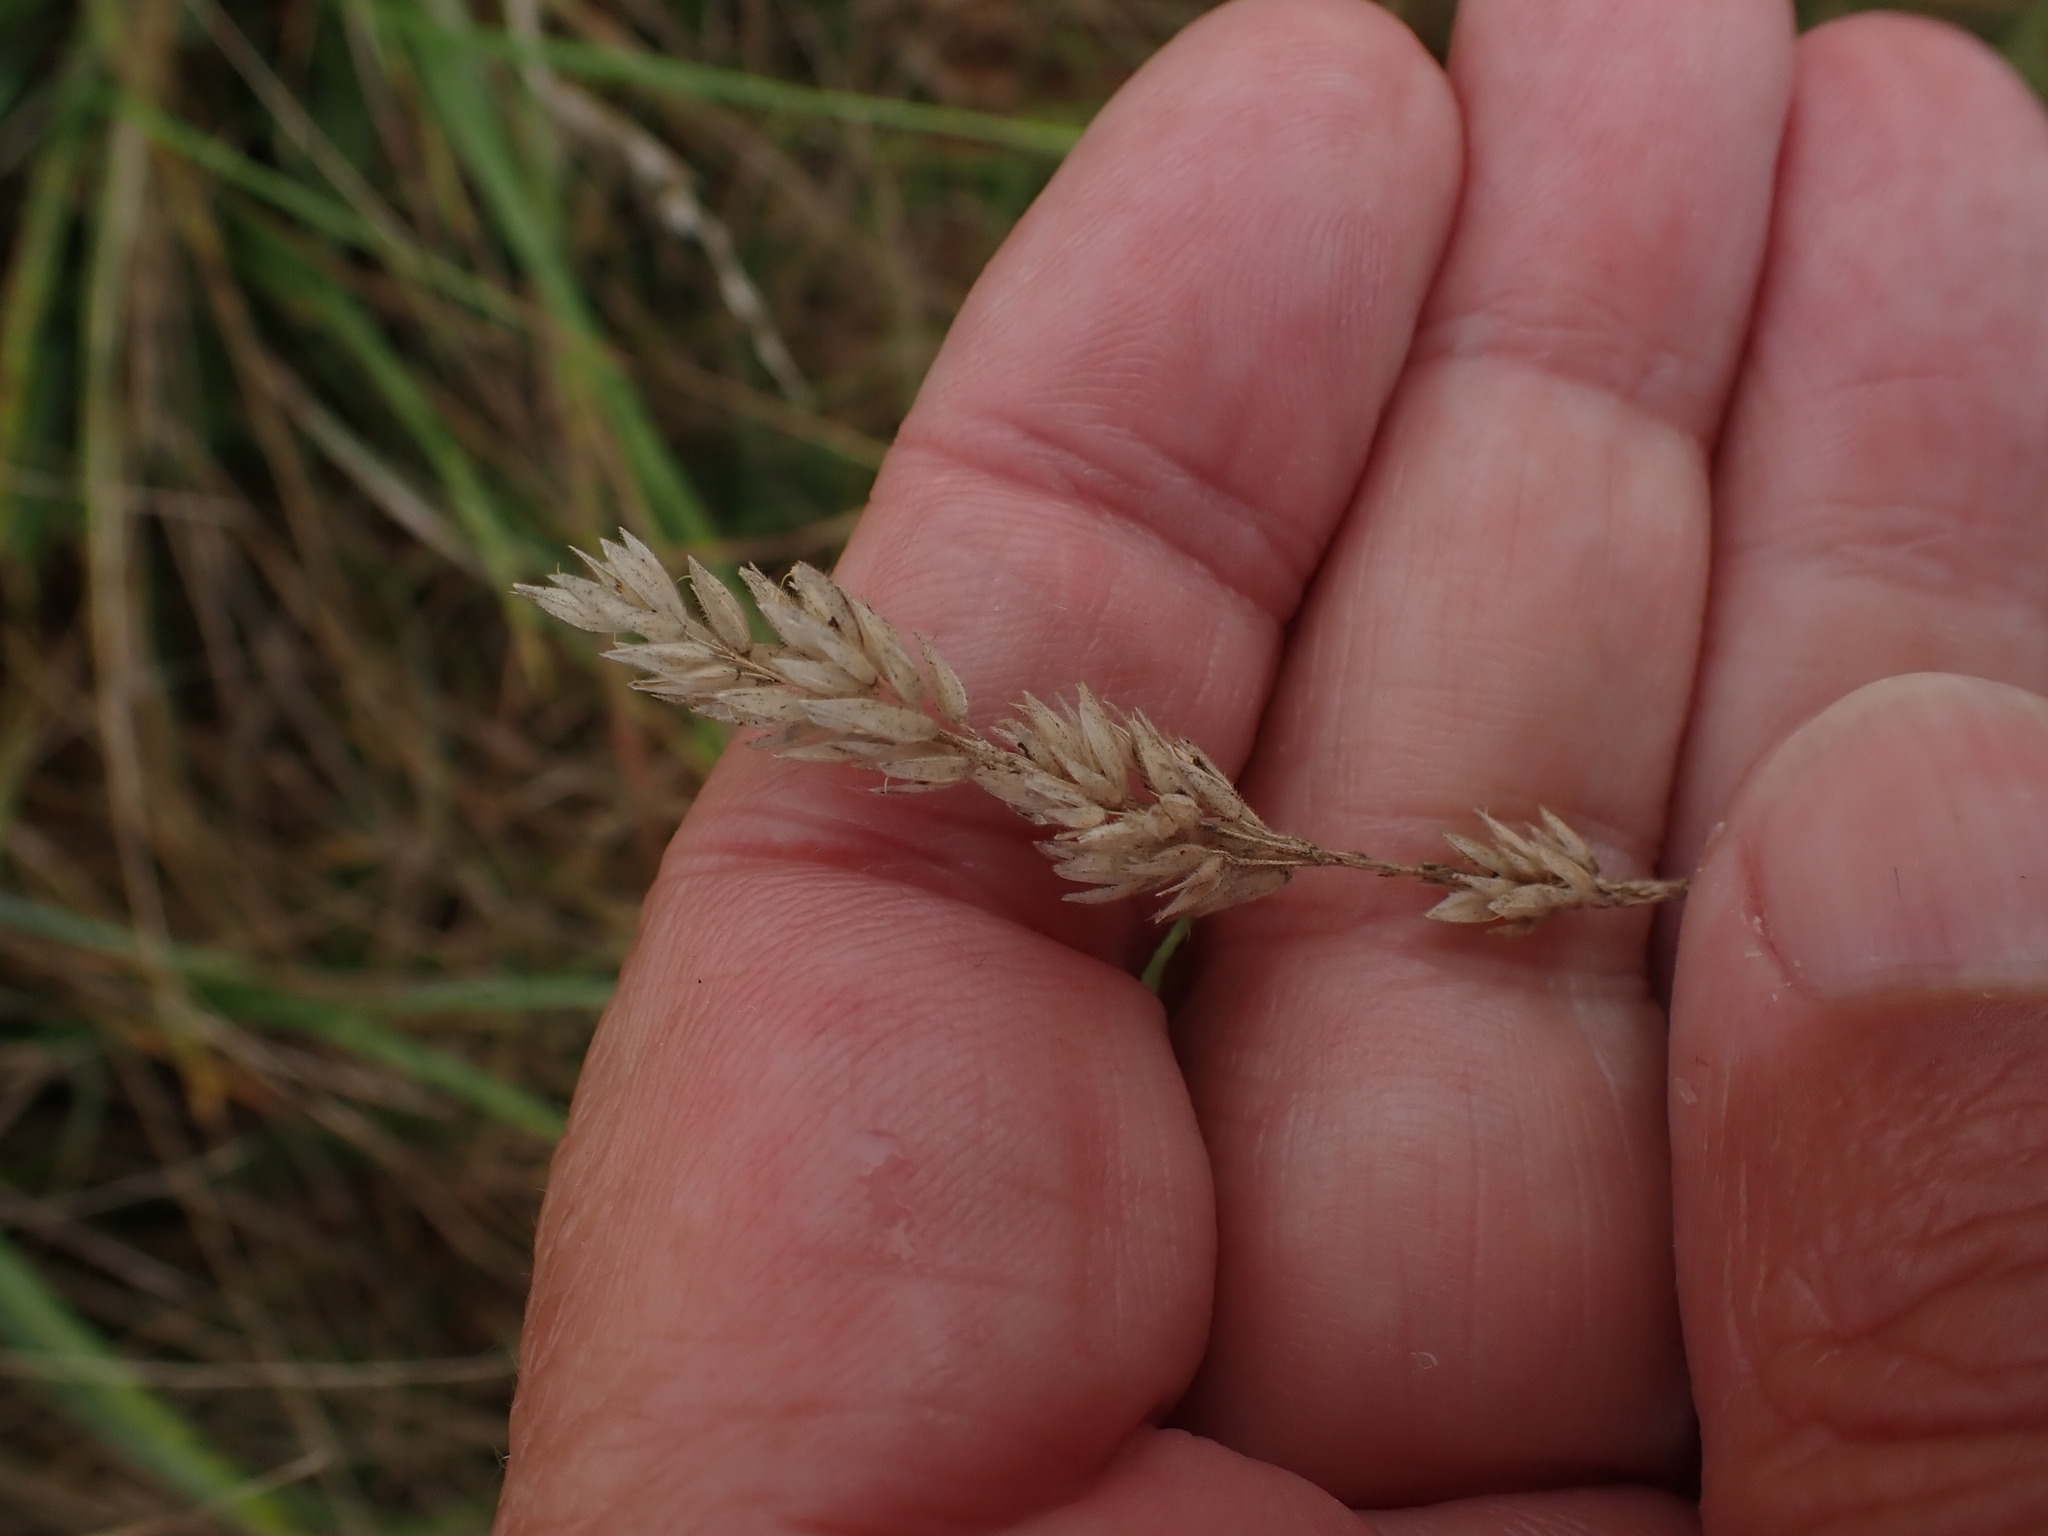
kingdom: Plantae
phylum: Tracheophyta
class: Liliopsida
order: Poales
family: Poaceae
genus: Holcus
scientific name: Holcus lanatus
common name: Yorkshire-fog
